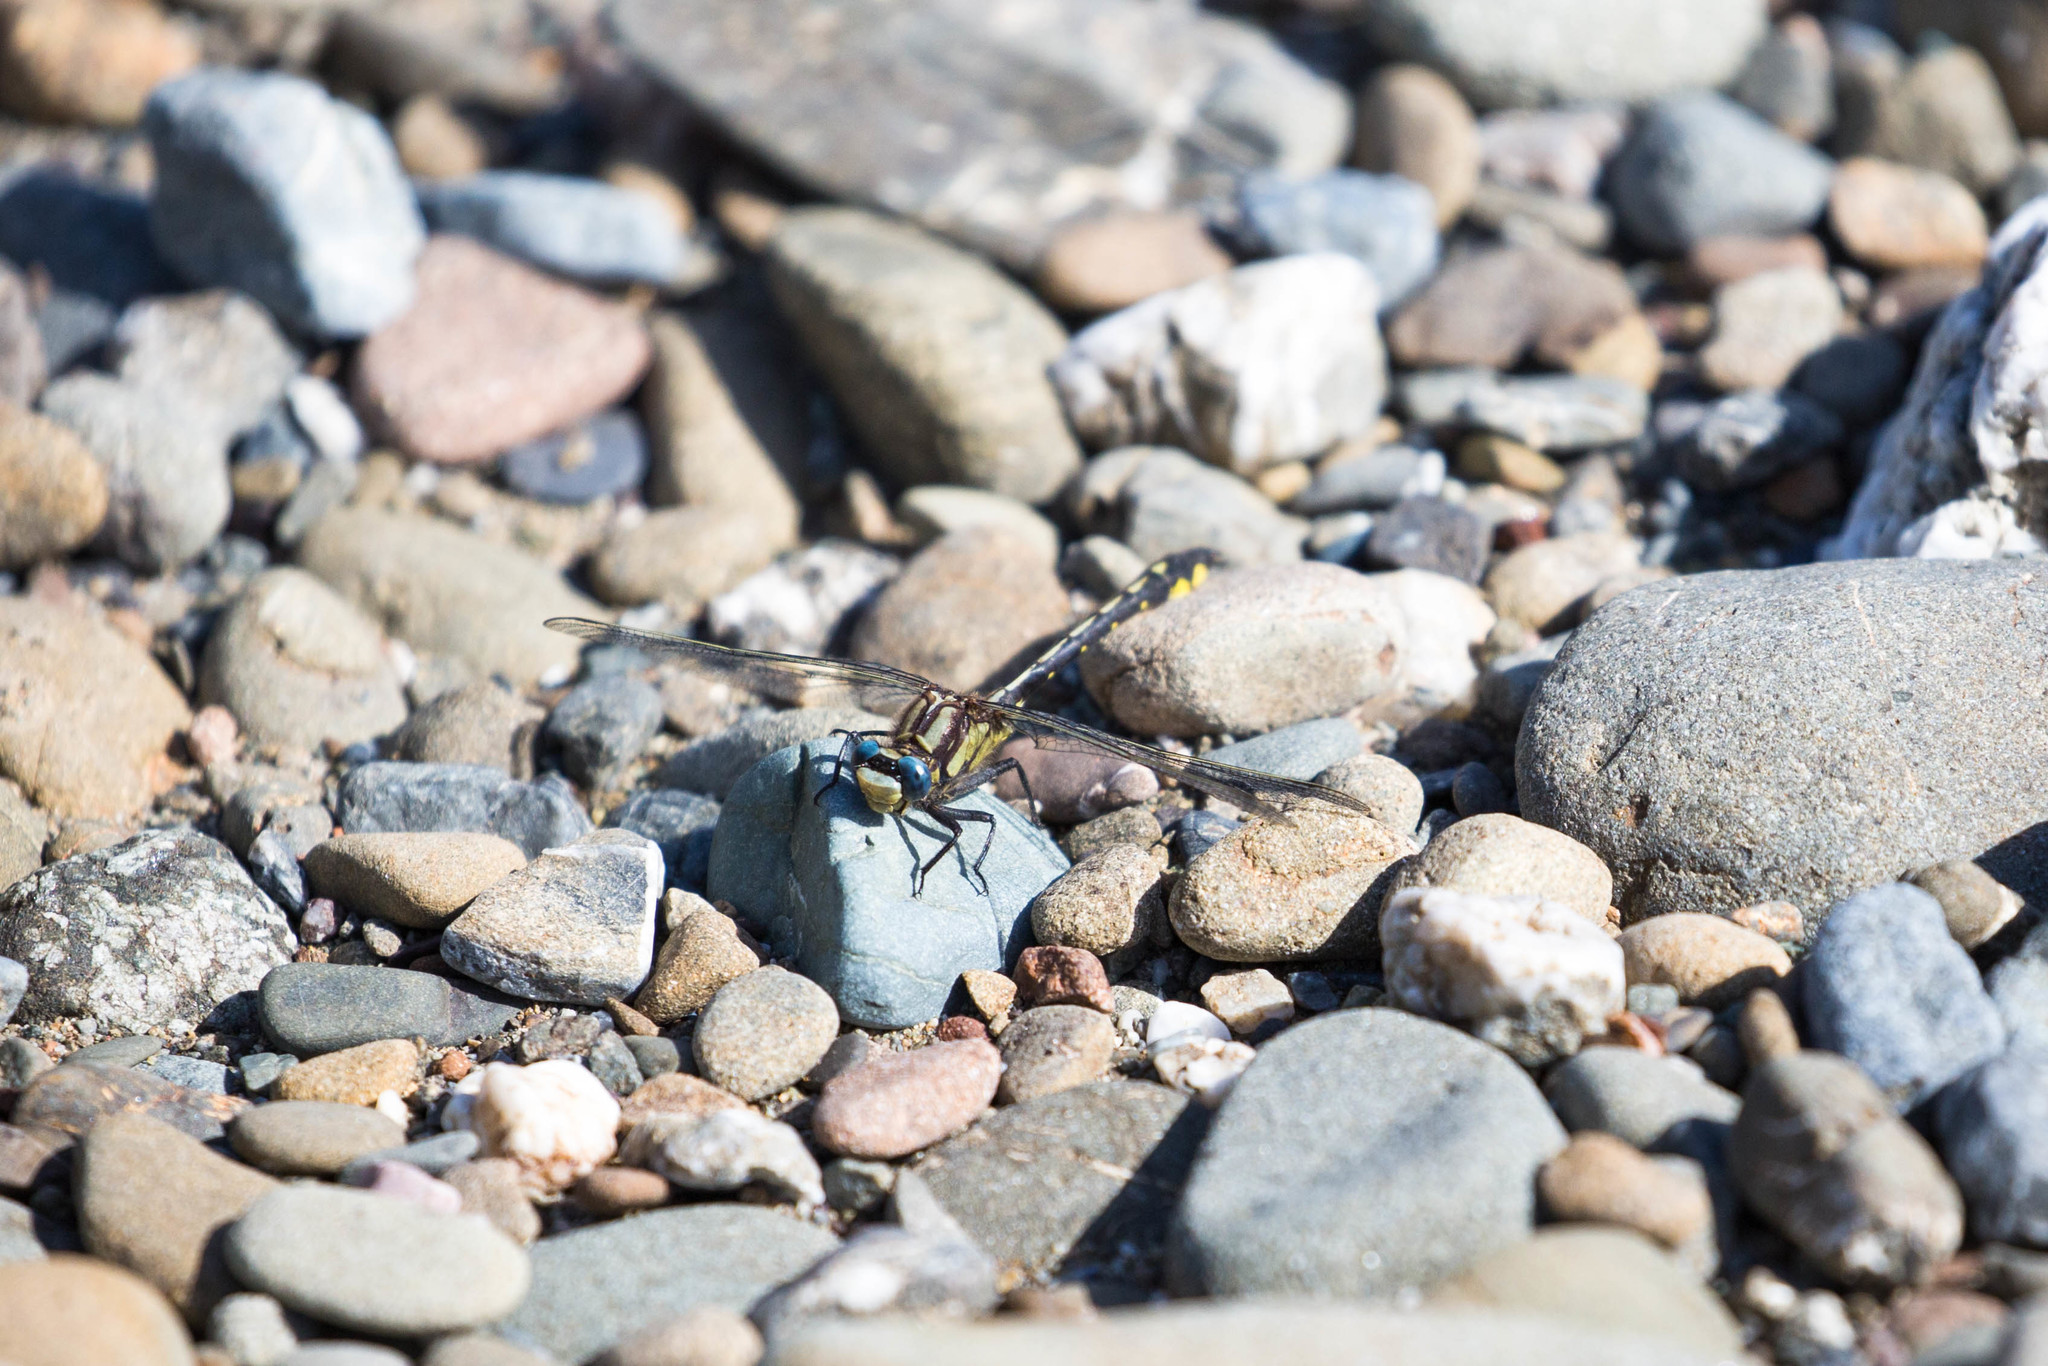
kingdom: Animalia
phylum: Arthropoda
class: Insecta
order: Odonata
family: Gomphidae
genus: Phanogomphus
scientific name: Phanogomphus kurilis
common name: Pacific clubtail
